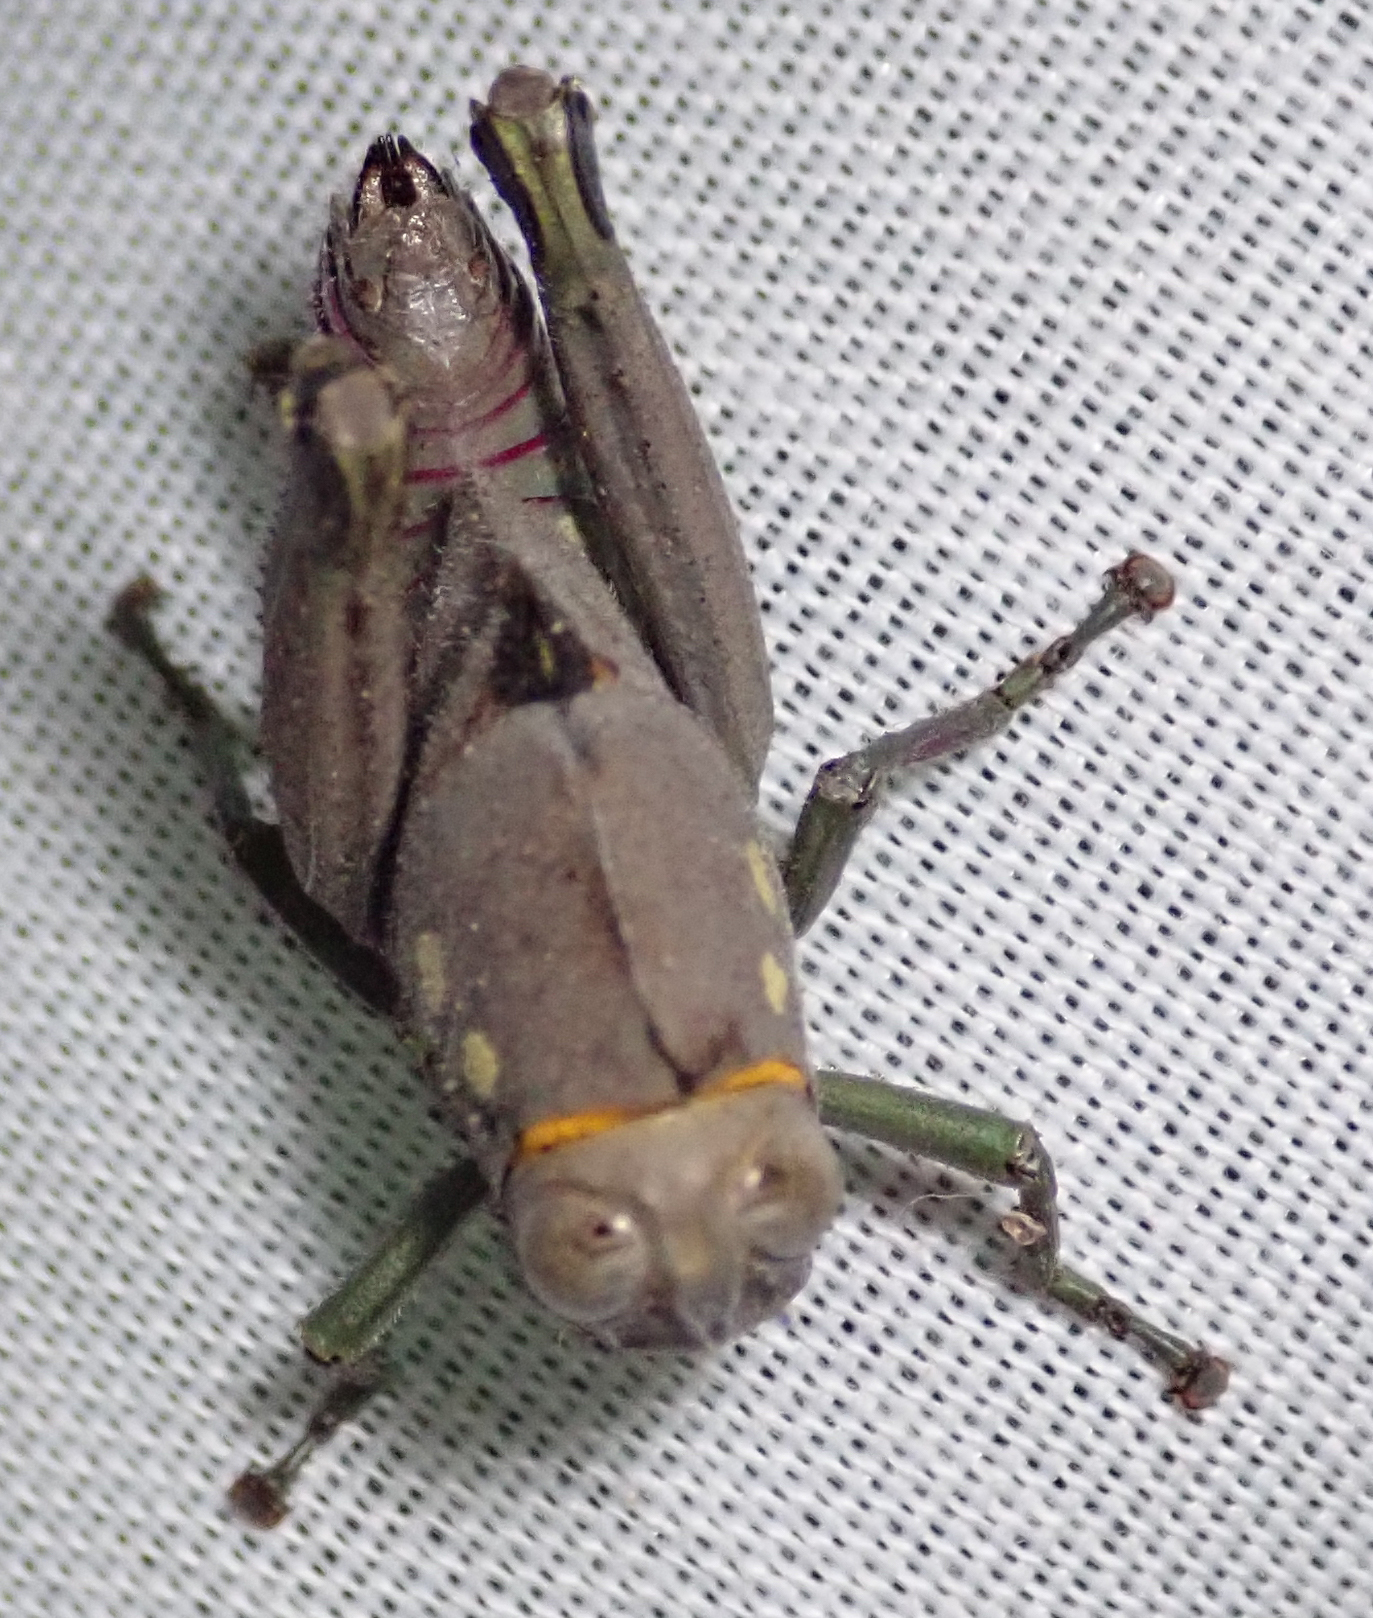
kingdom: Animalia
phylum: Arthropoda
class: Insecta
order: Orthoptera
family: Thericleidae
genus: Parathericles
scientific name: Parathericles elephantulus
